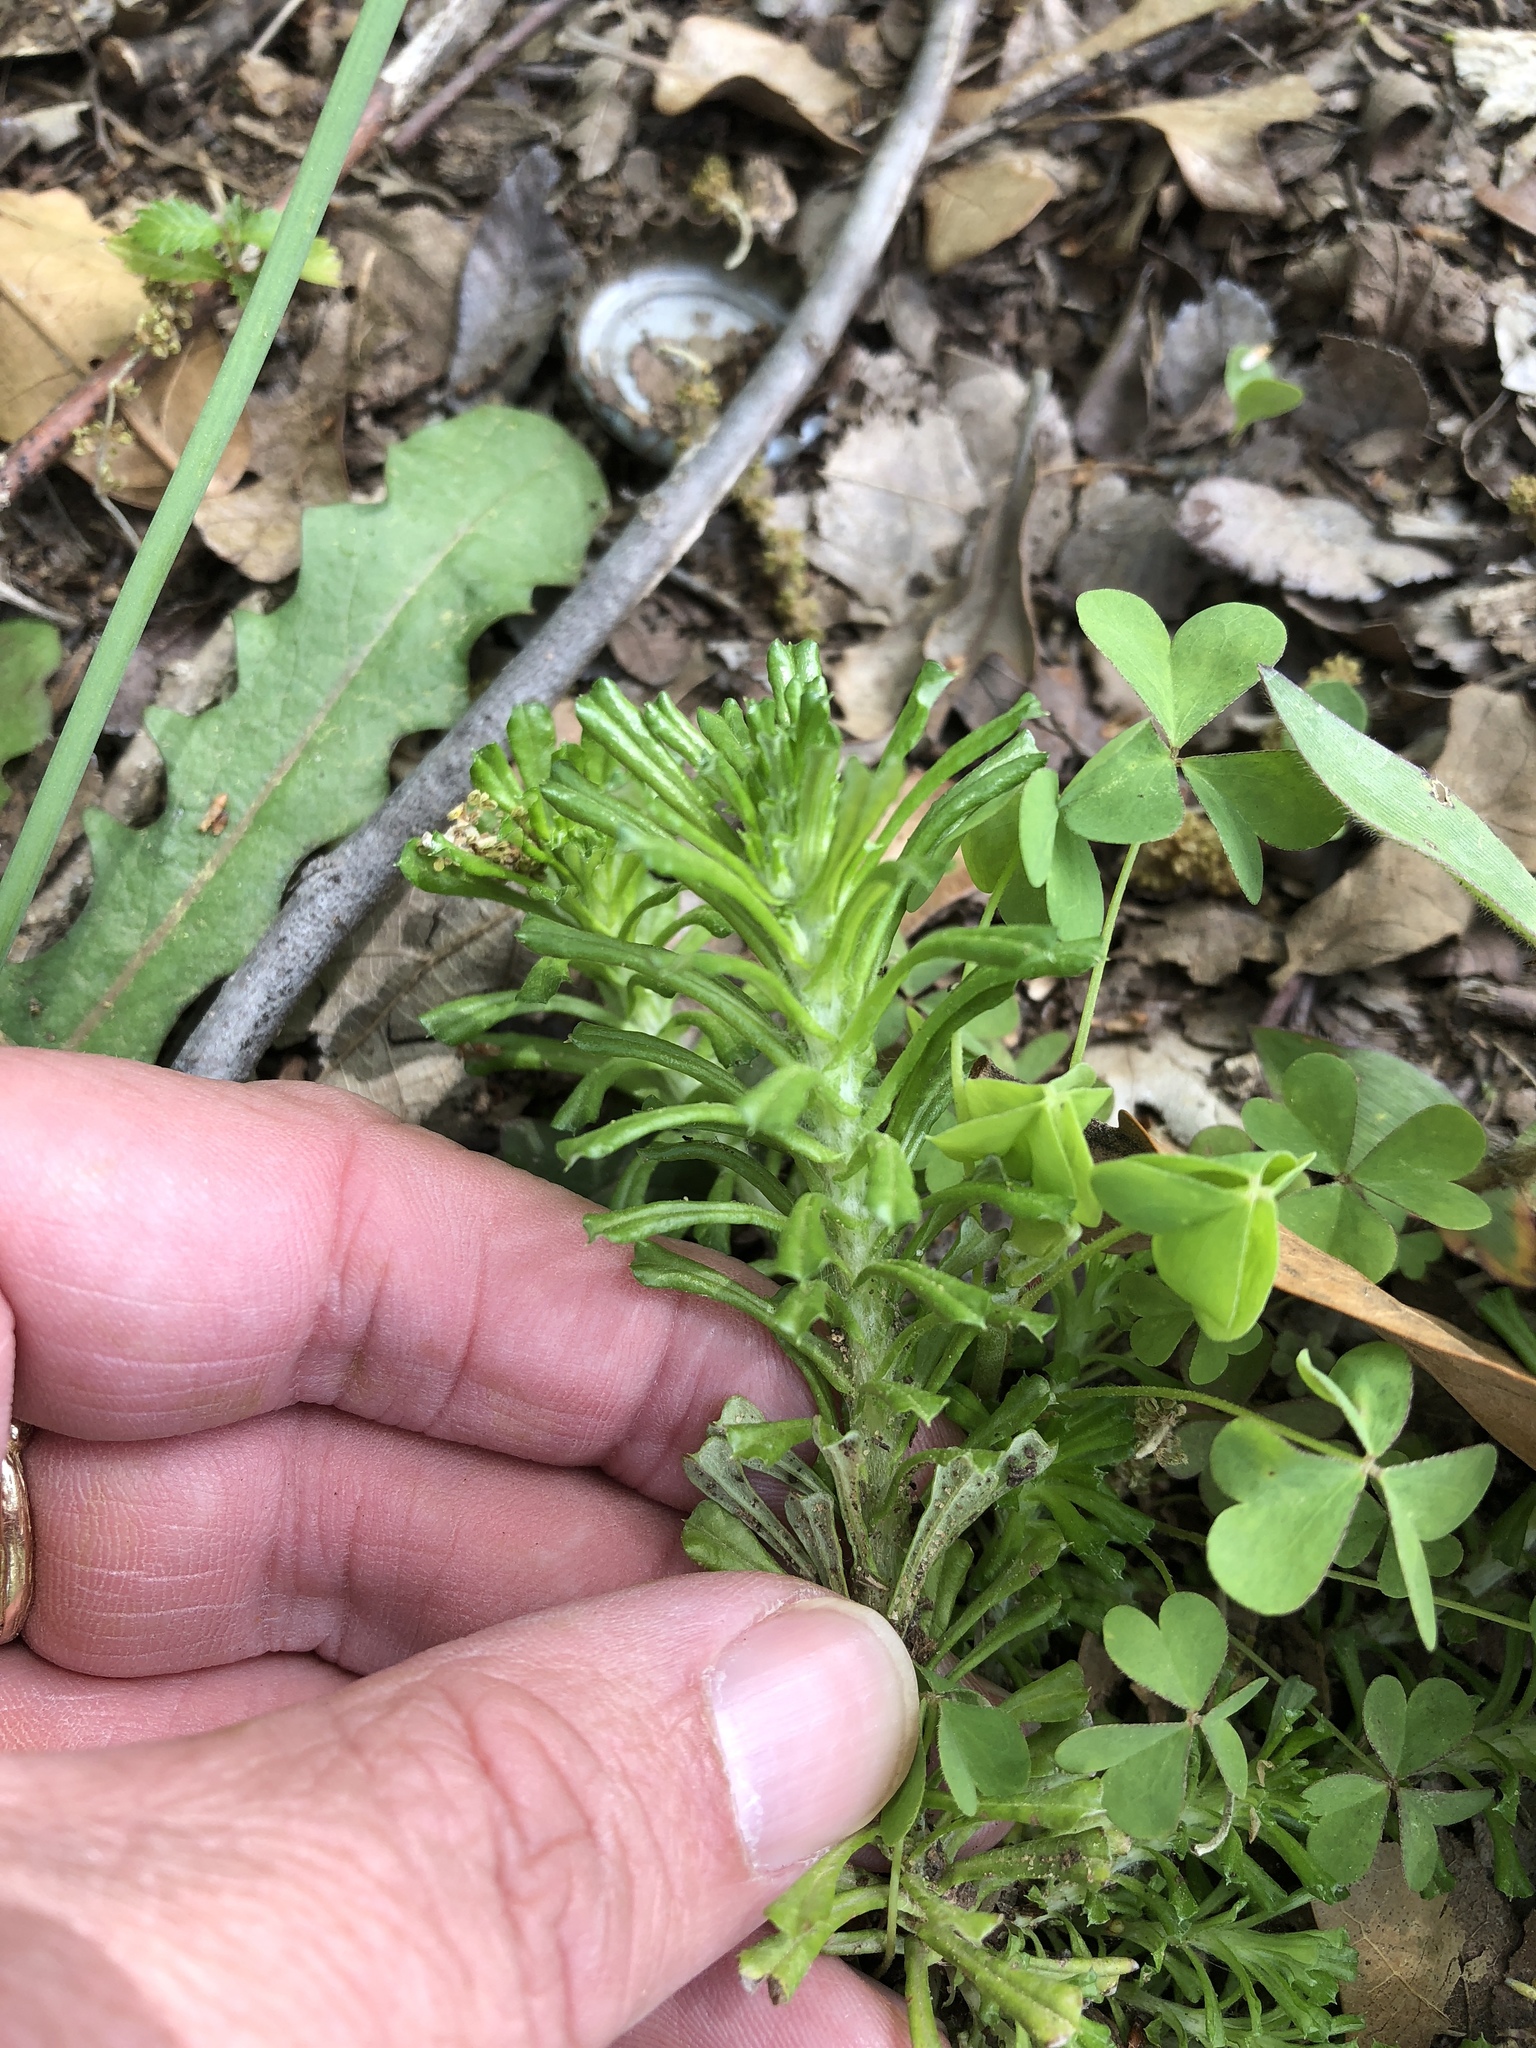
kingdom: Plantae
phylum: Tracheophyta
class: Magnoliopsida
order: Asterales
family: Asteraceae
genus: Facelis
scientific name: Facelis retusa
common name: Annual trampweed
